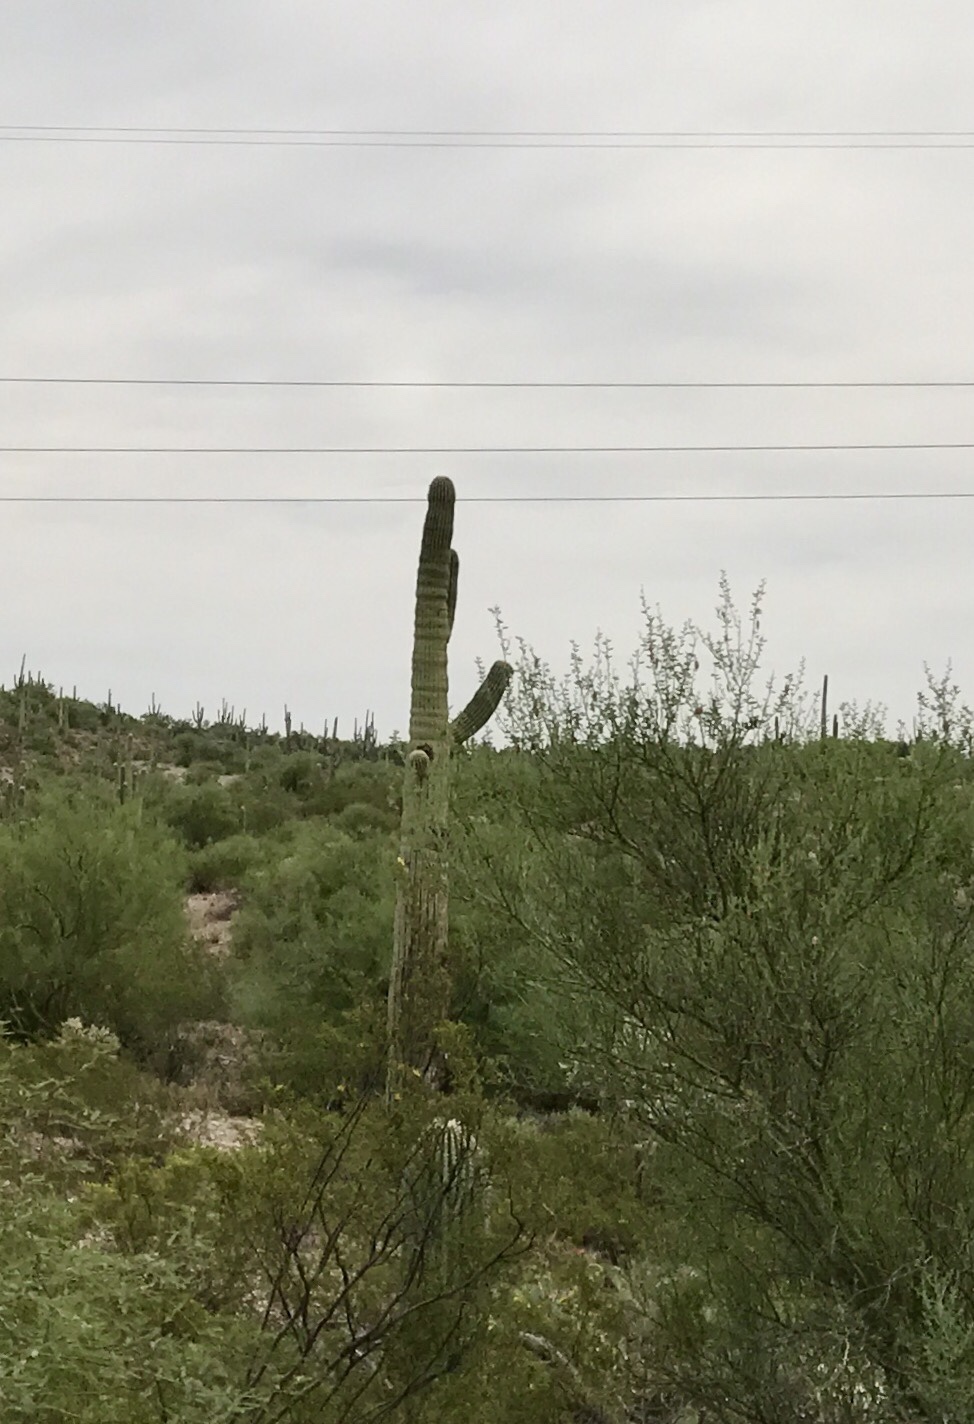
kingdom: Plantae
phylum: Tracheophyta
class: Magnoliopsida
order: Caryophyllales
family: Cactaceae
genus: Carnegiea
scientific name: Carnegiea gigantea
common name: Saguaro
